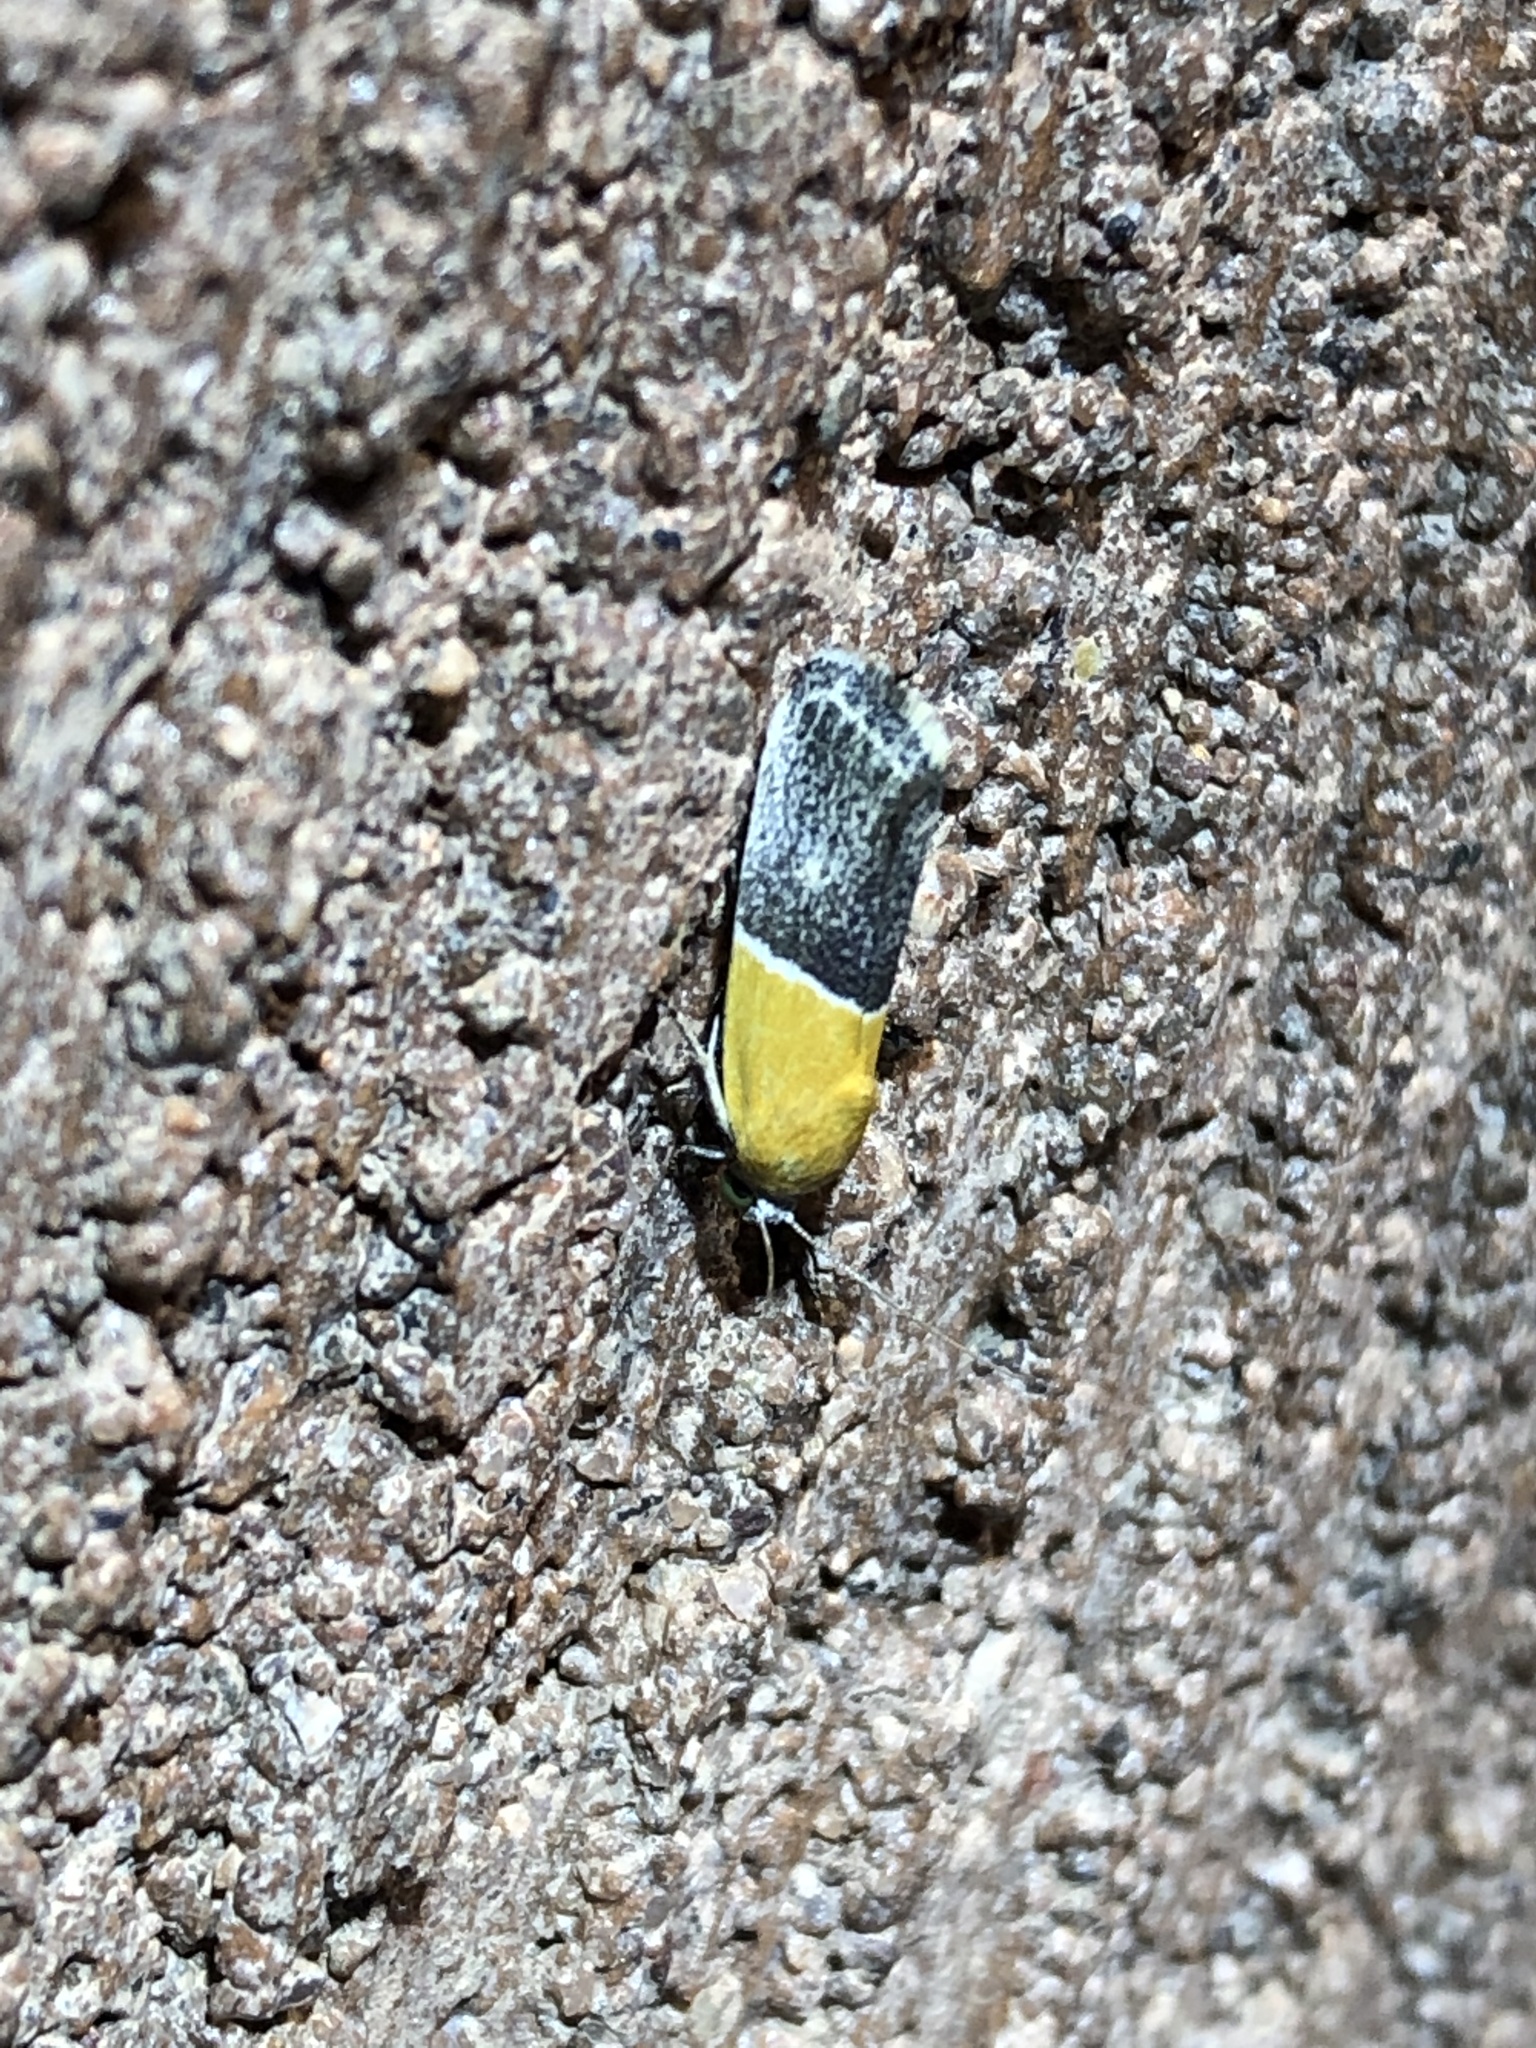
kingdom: Animalia
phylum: Arthropoda
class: Insecta
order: Lepidoptera
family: Noctuidae
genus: Acontia
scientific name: Acontia clausula
